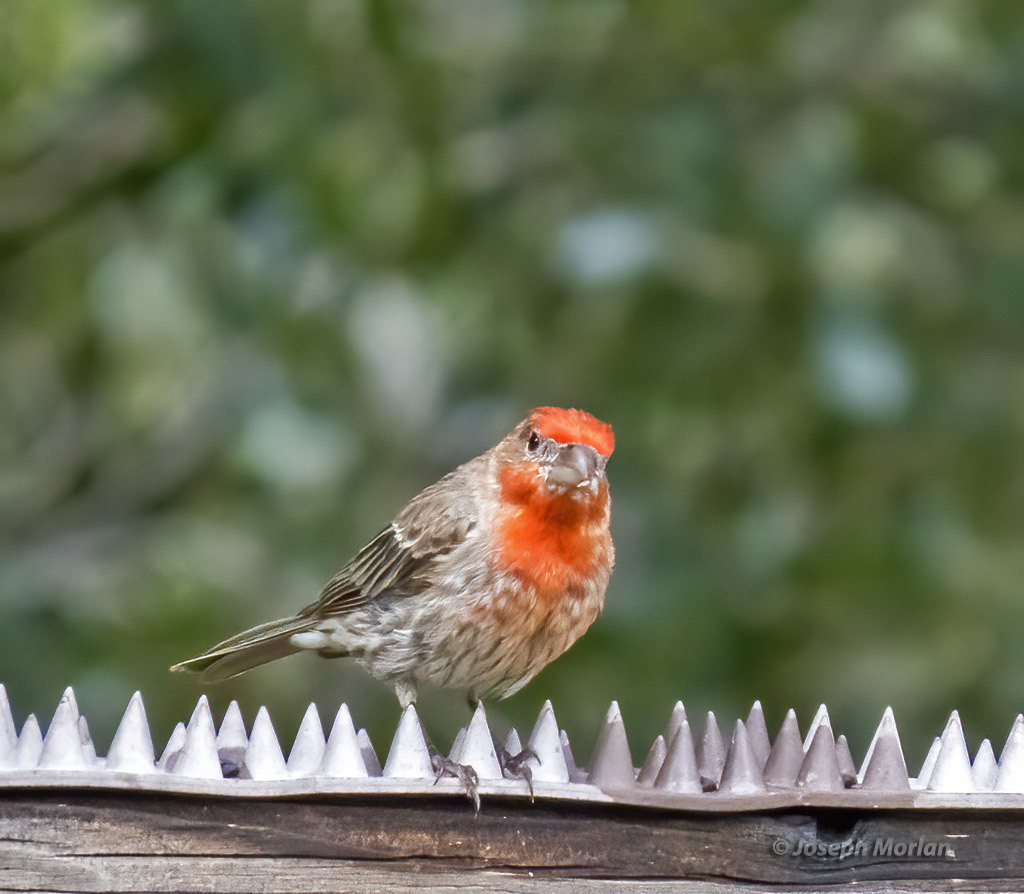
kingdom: Animalia
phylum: Chordata
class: Aves
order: Passeriformes
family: Fringillidae
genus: Haemorhous
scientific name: Haemorhous mexicanus
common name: House finch
